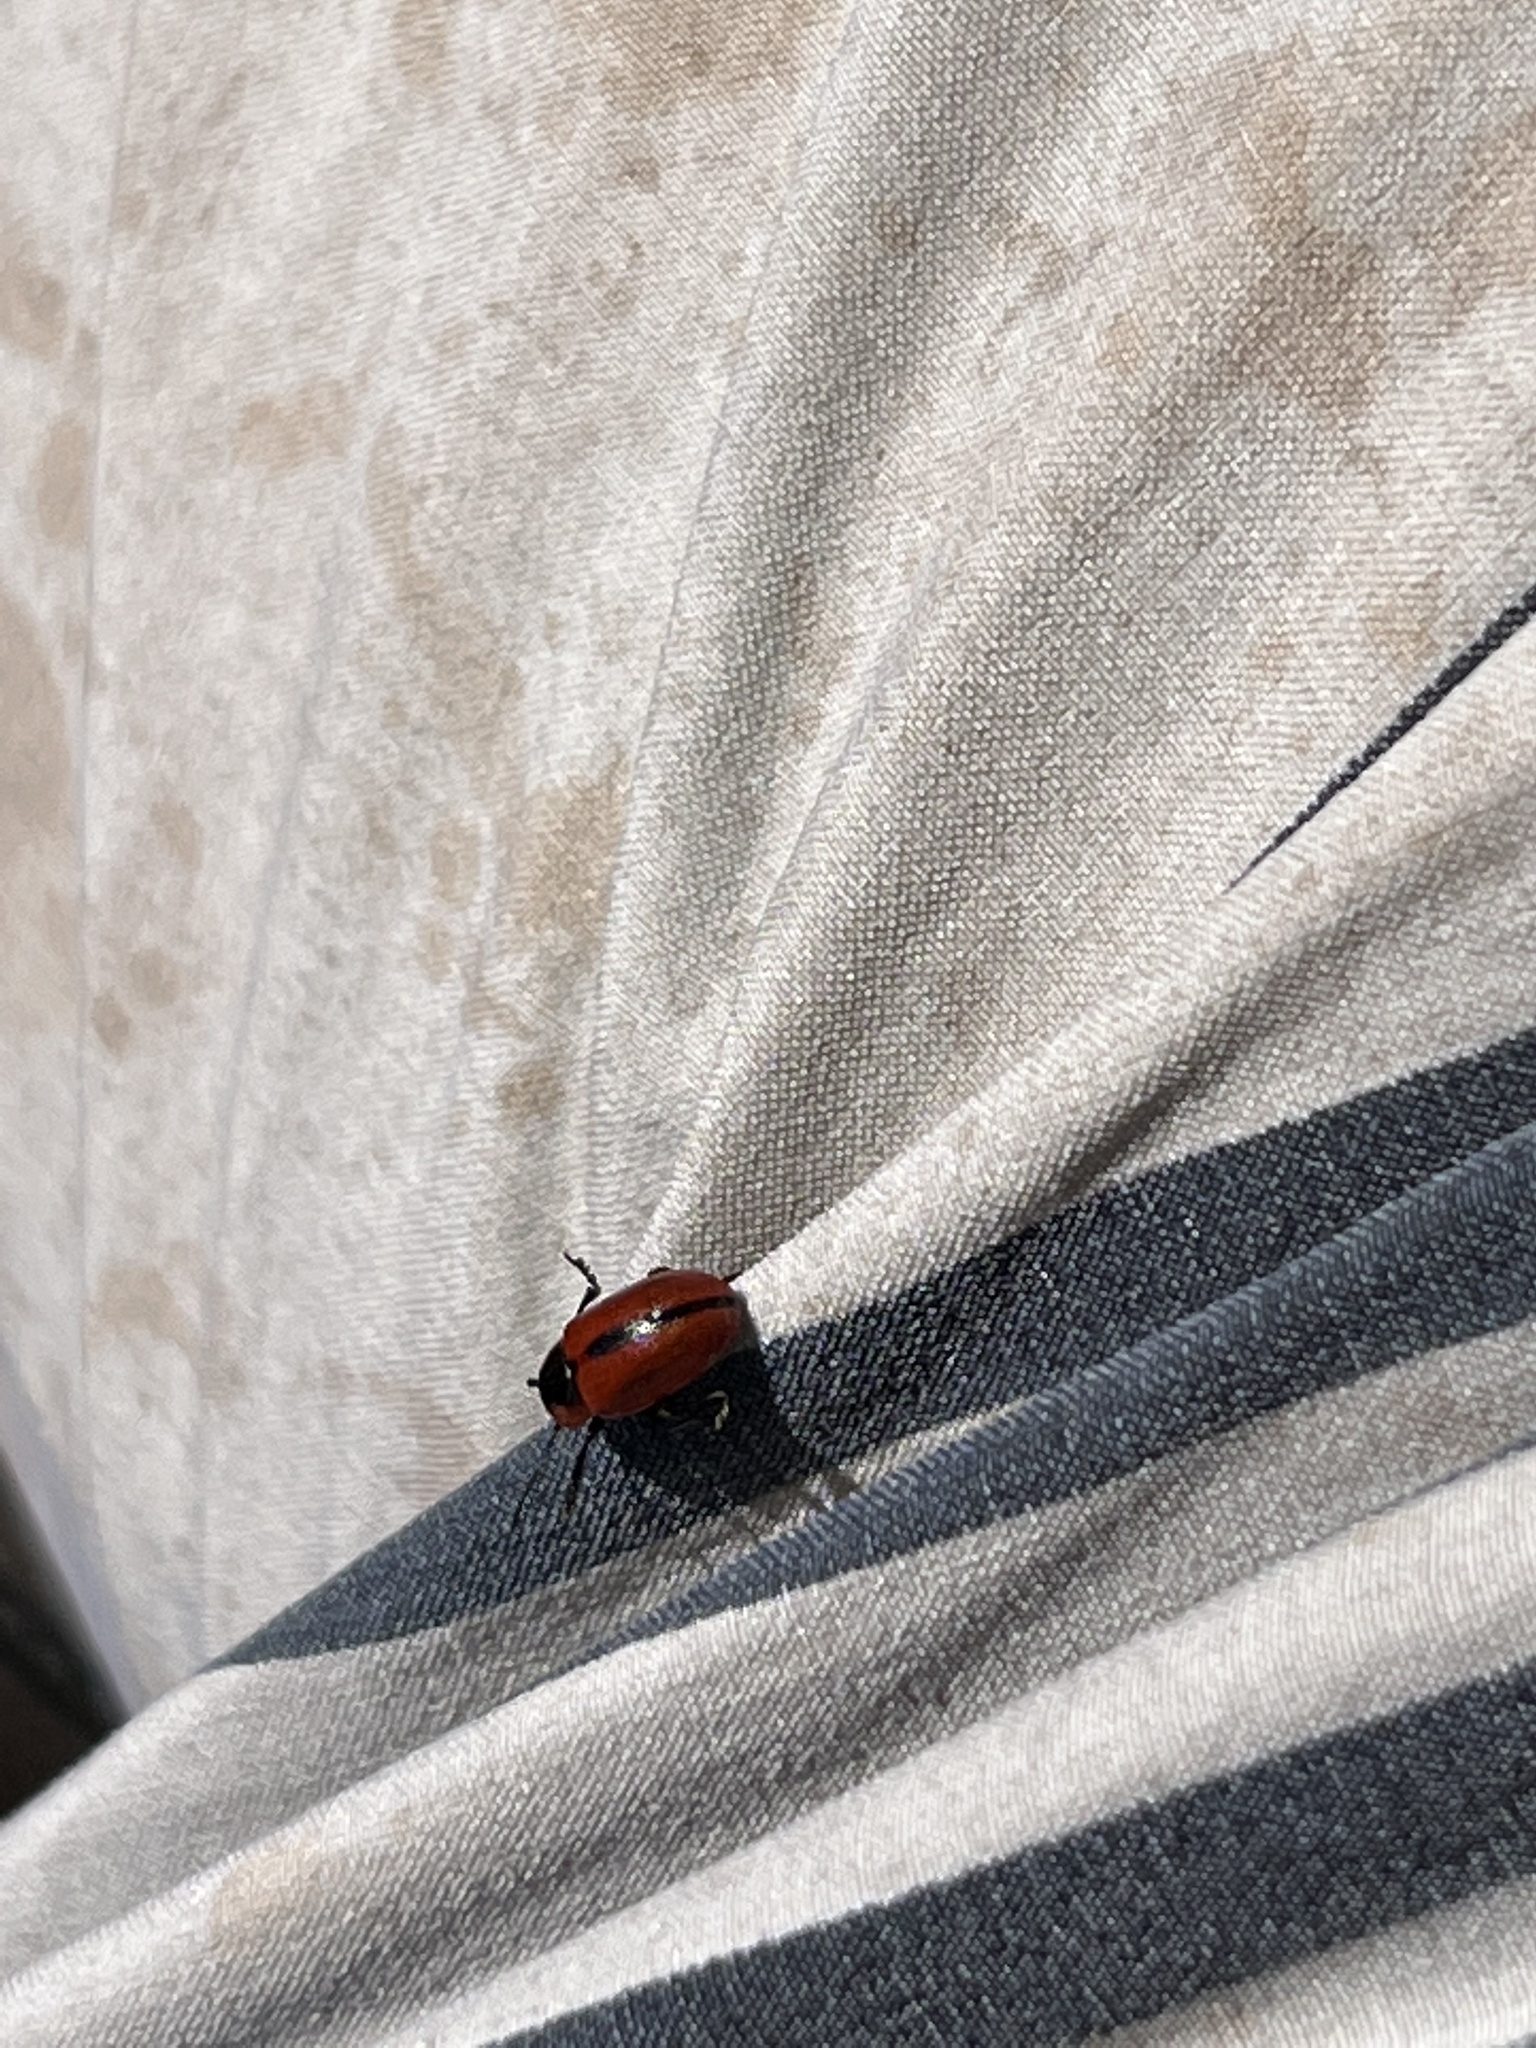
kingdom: Animalia
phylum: Arthropoda
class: Insecta
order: Coleoptera
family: Chrysomelidae
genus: Entomoscelis
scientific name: Entomoscelis americana
